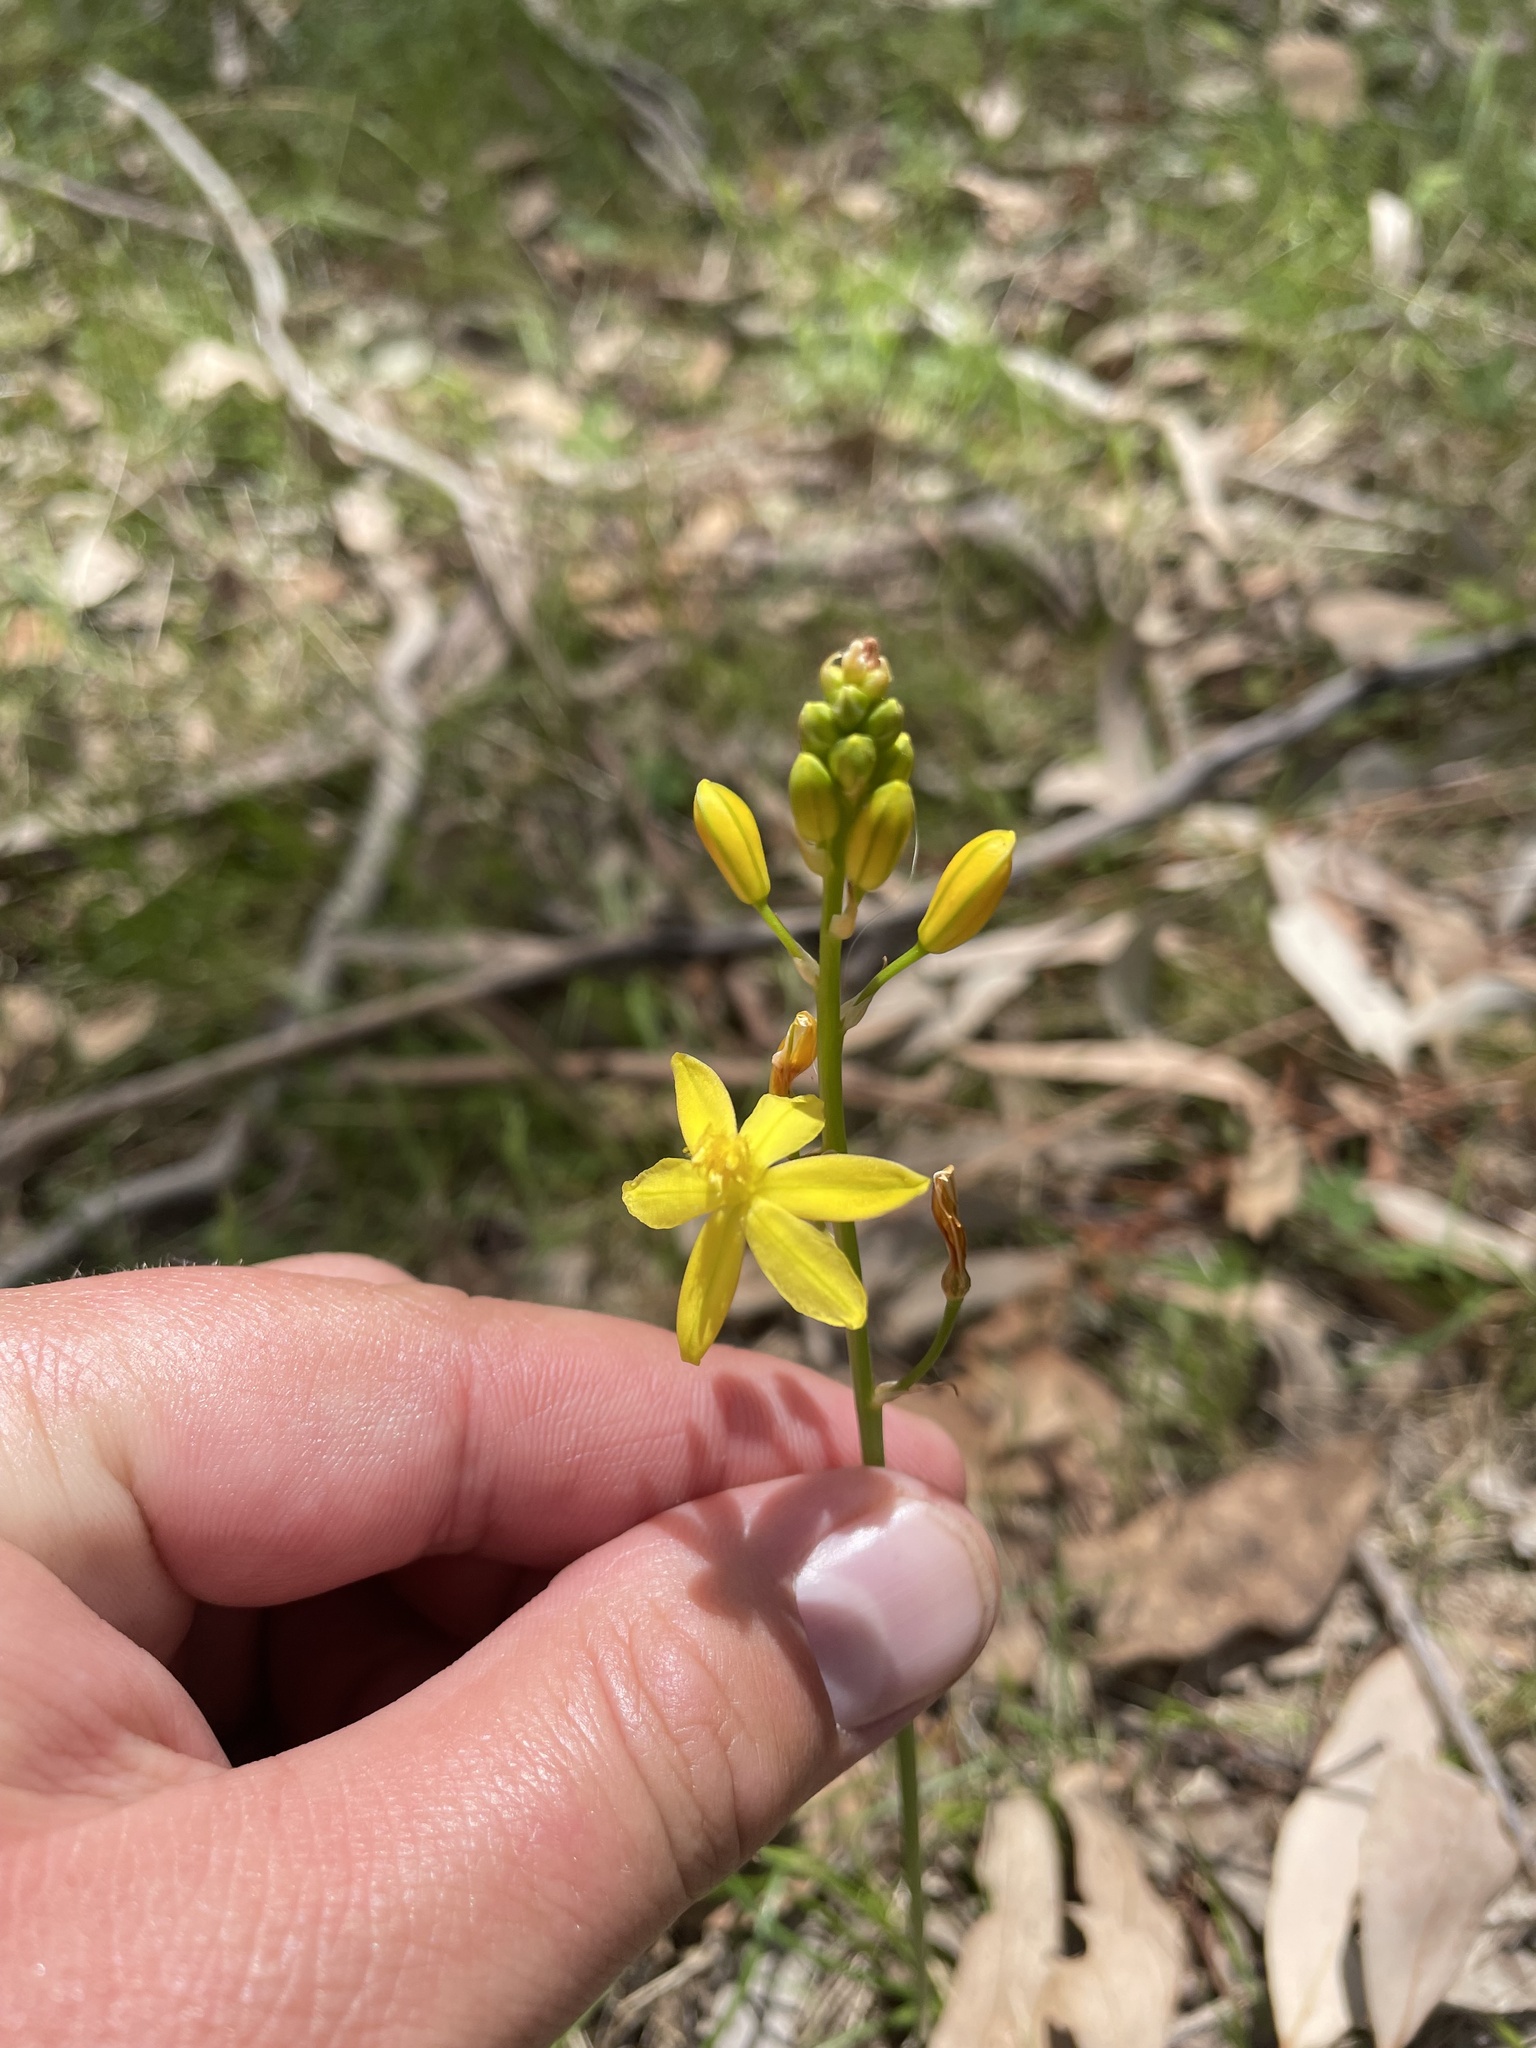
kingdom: Plantae
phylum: Tracheophyta
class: Liliopsida
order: Asparagales
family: Asphodelaceae
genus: Bulbine
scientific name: Bulbine bulbosa
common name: Golden-lily
